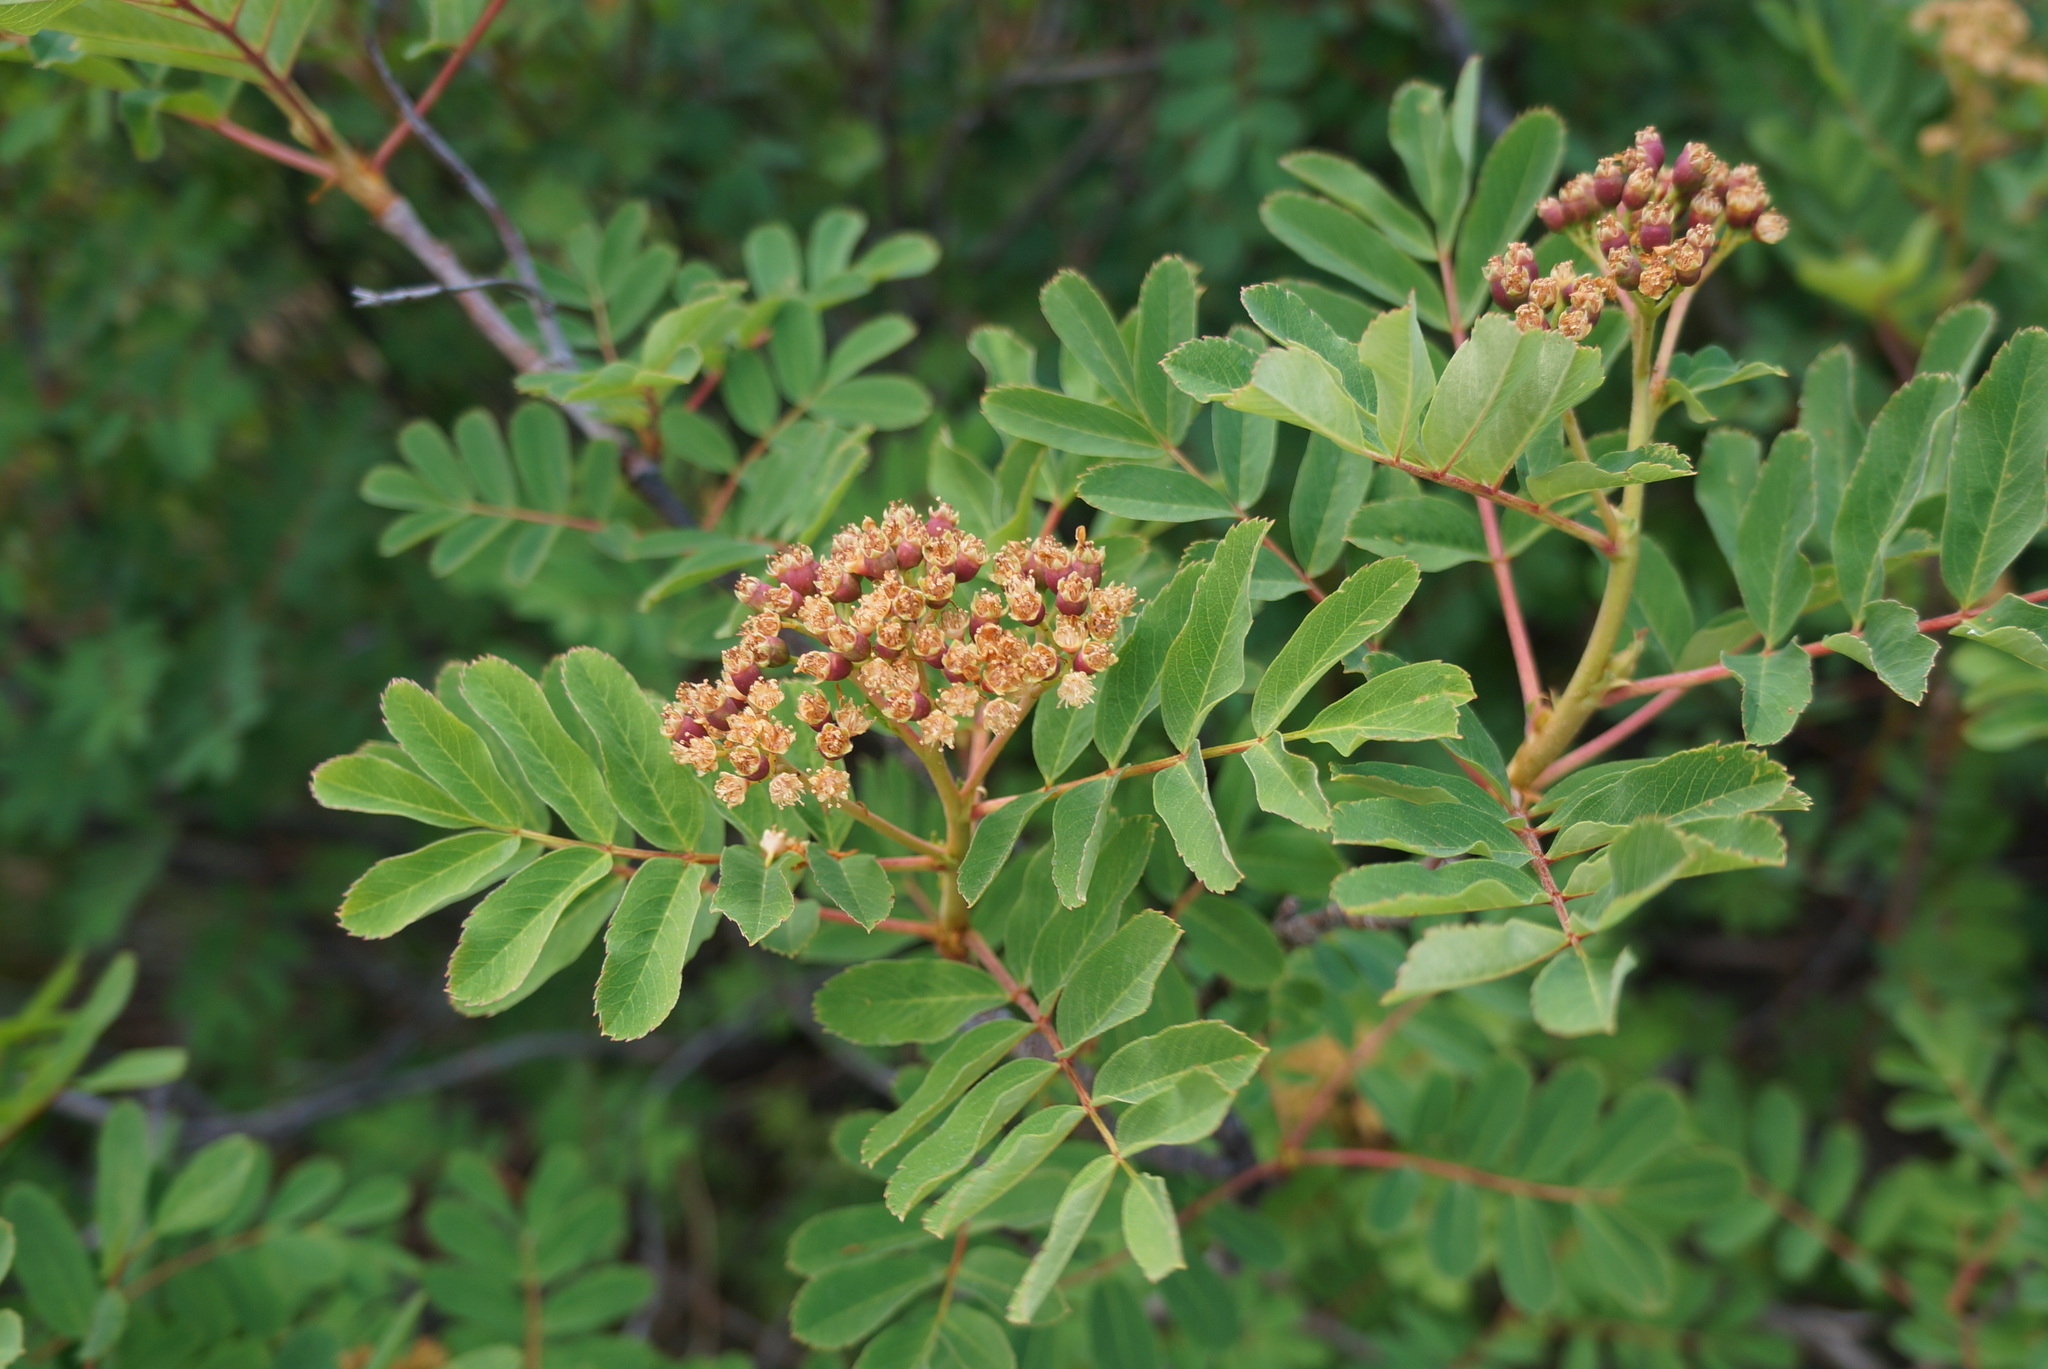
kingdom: Plantae
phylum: Tracheophyta
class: Magnoliopsida
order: Rosales
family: Rosaceae
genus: Sorbus
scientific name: Sorbus sitchensis
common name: Sitka mountain-ash
